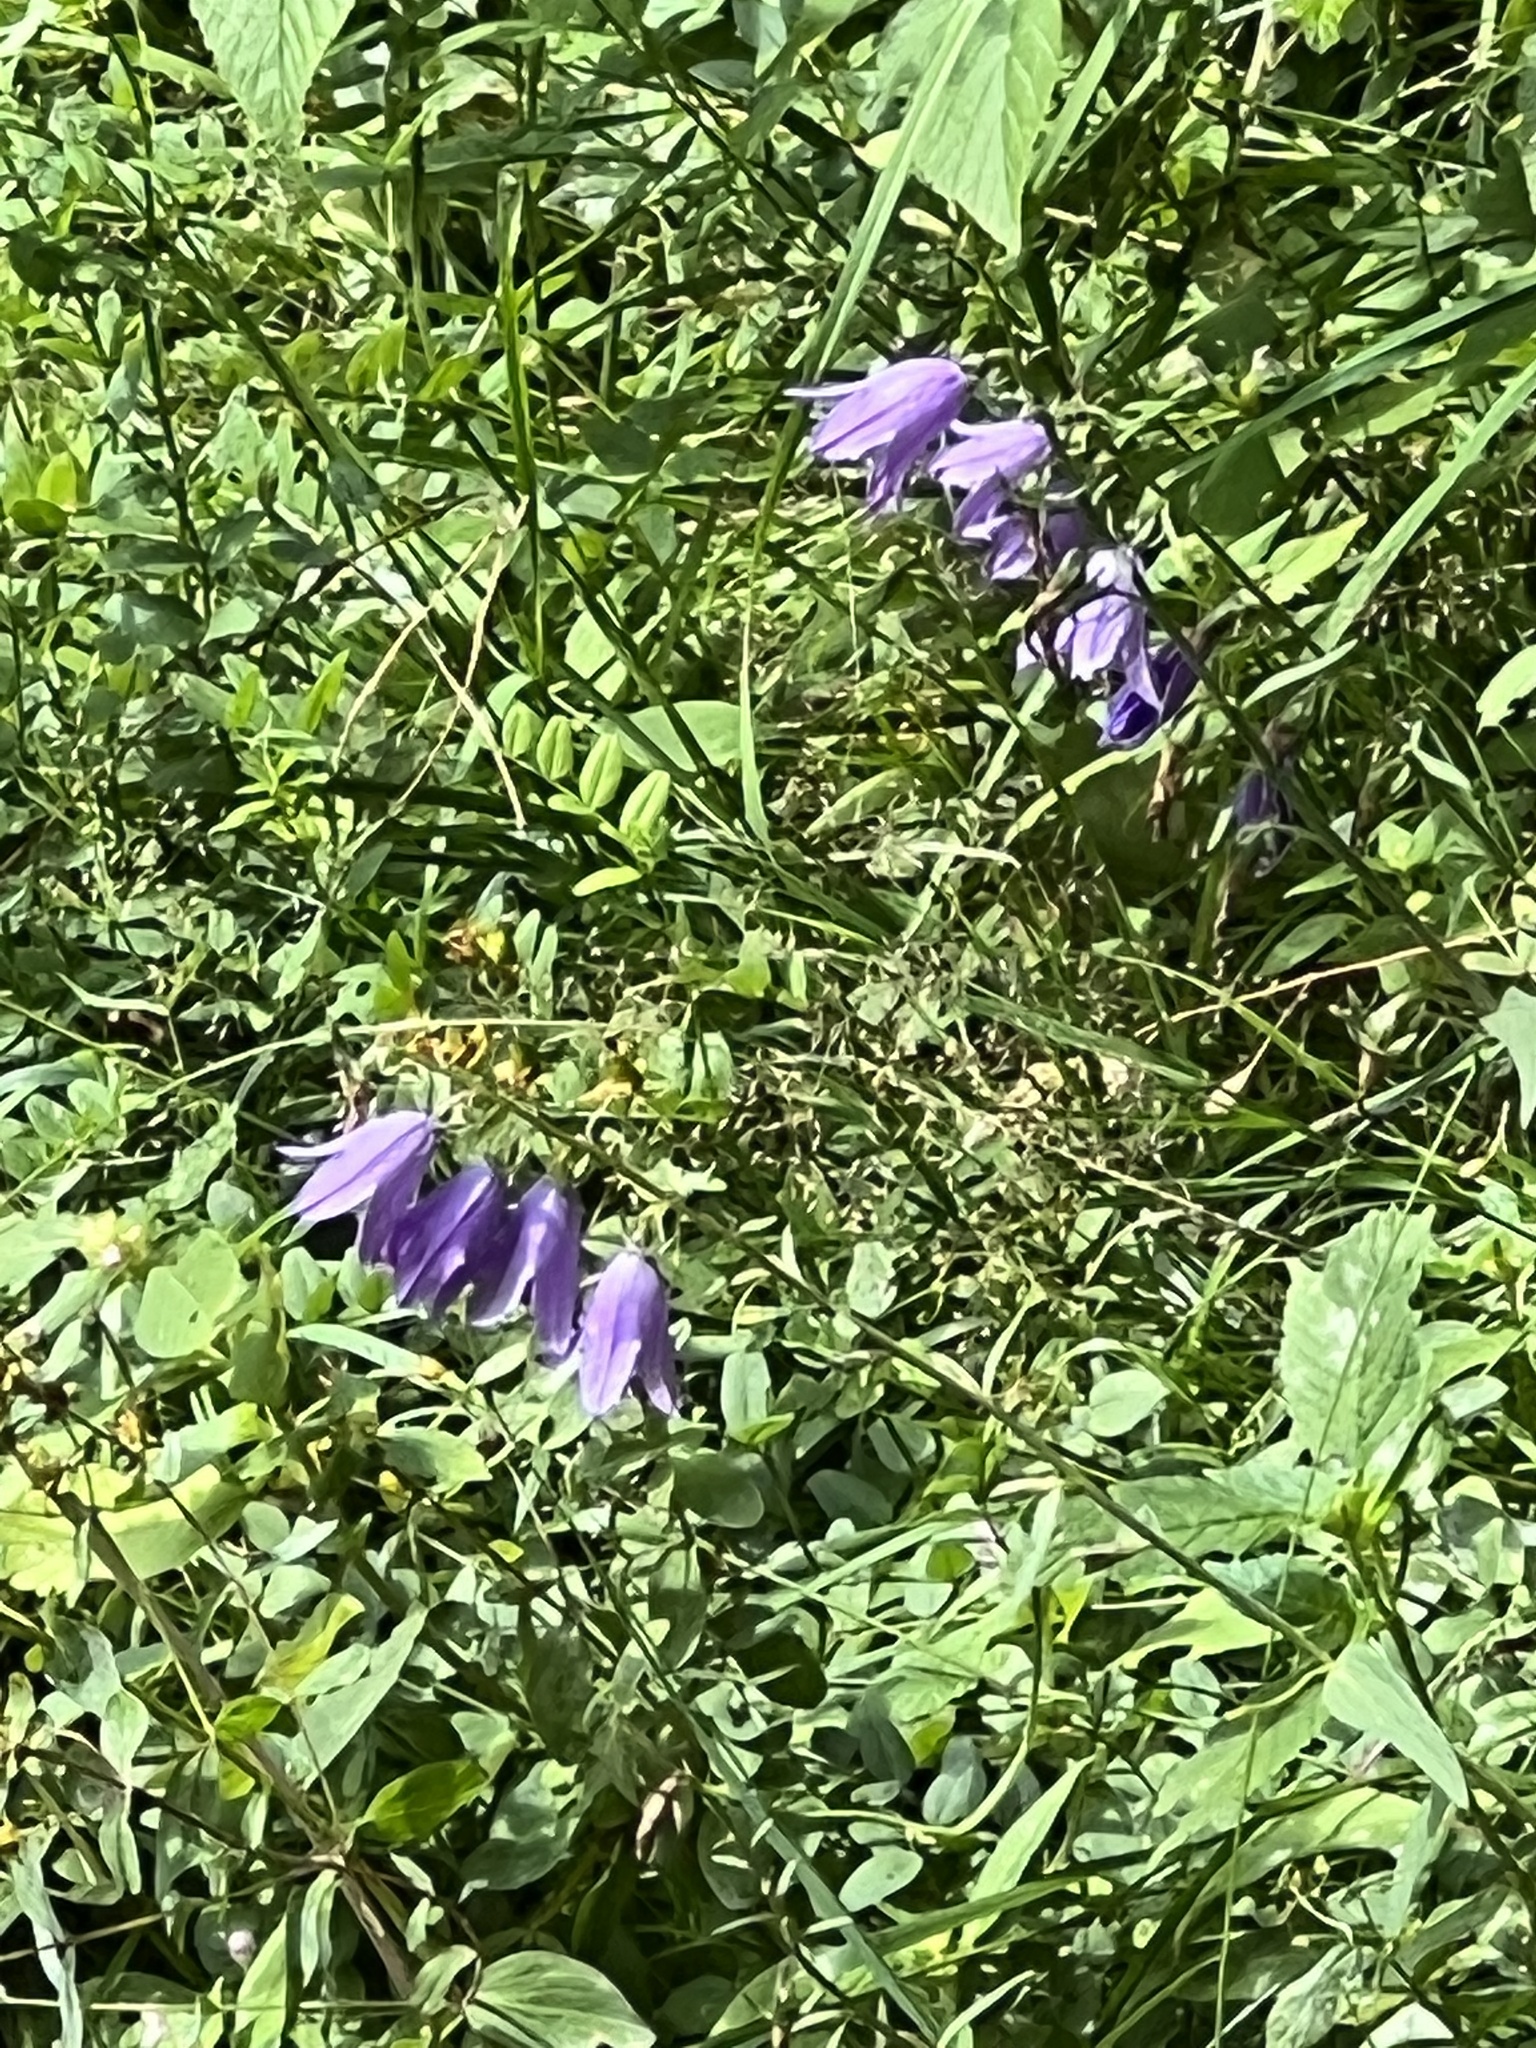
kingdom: Plantae
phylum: Tracheophyta
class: Magnoliopsida
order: Asterales
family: Campanulaceae
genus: Campanula
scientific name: Campanula rapunculoides
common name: Creeping bellflower
